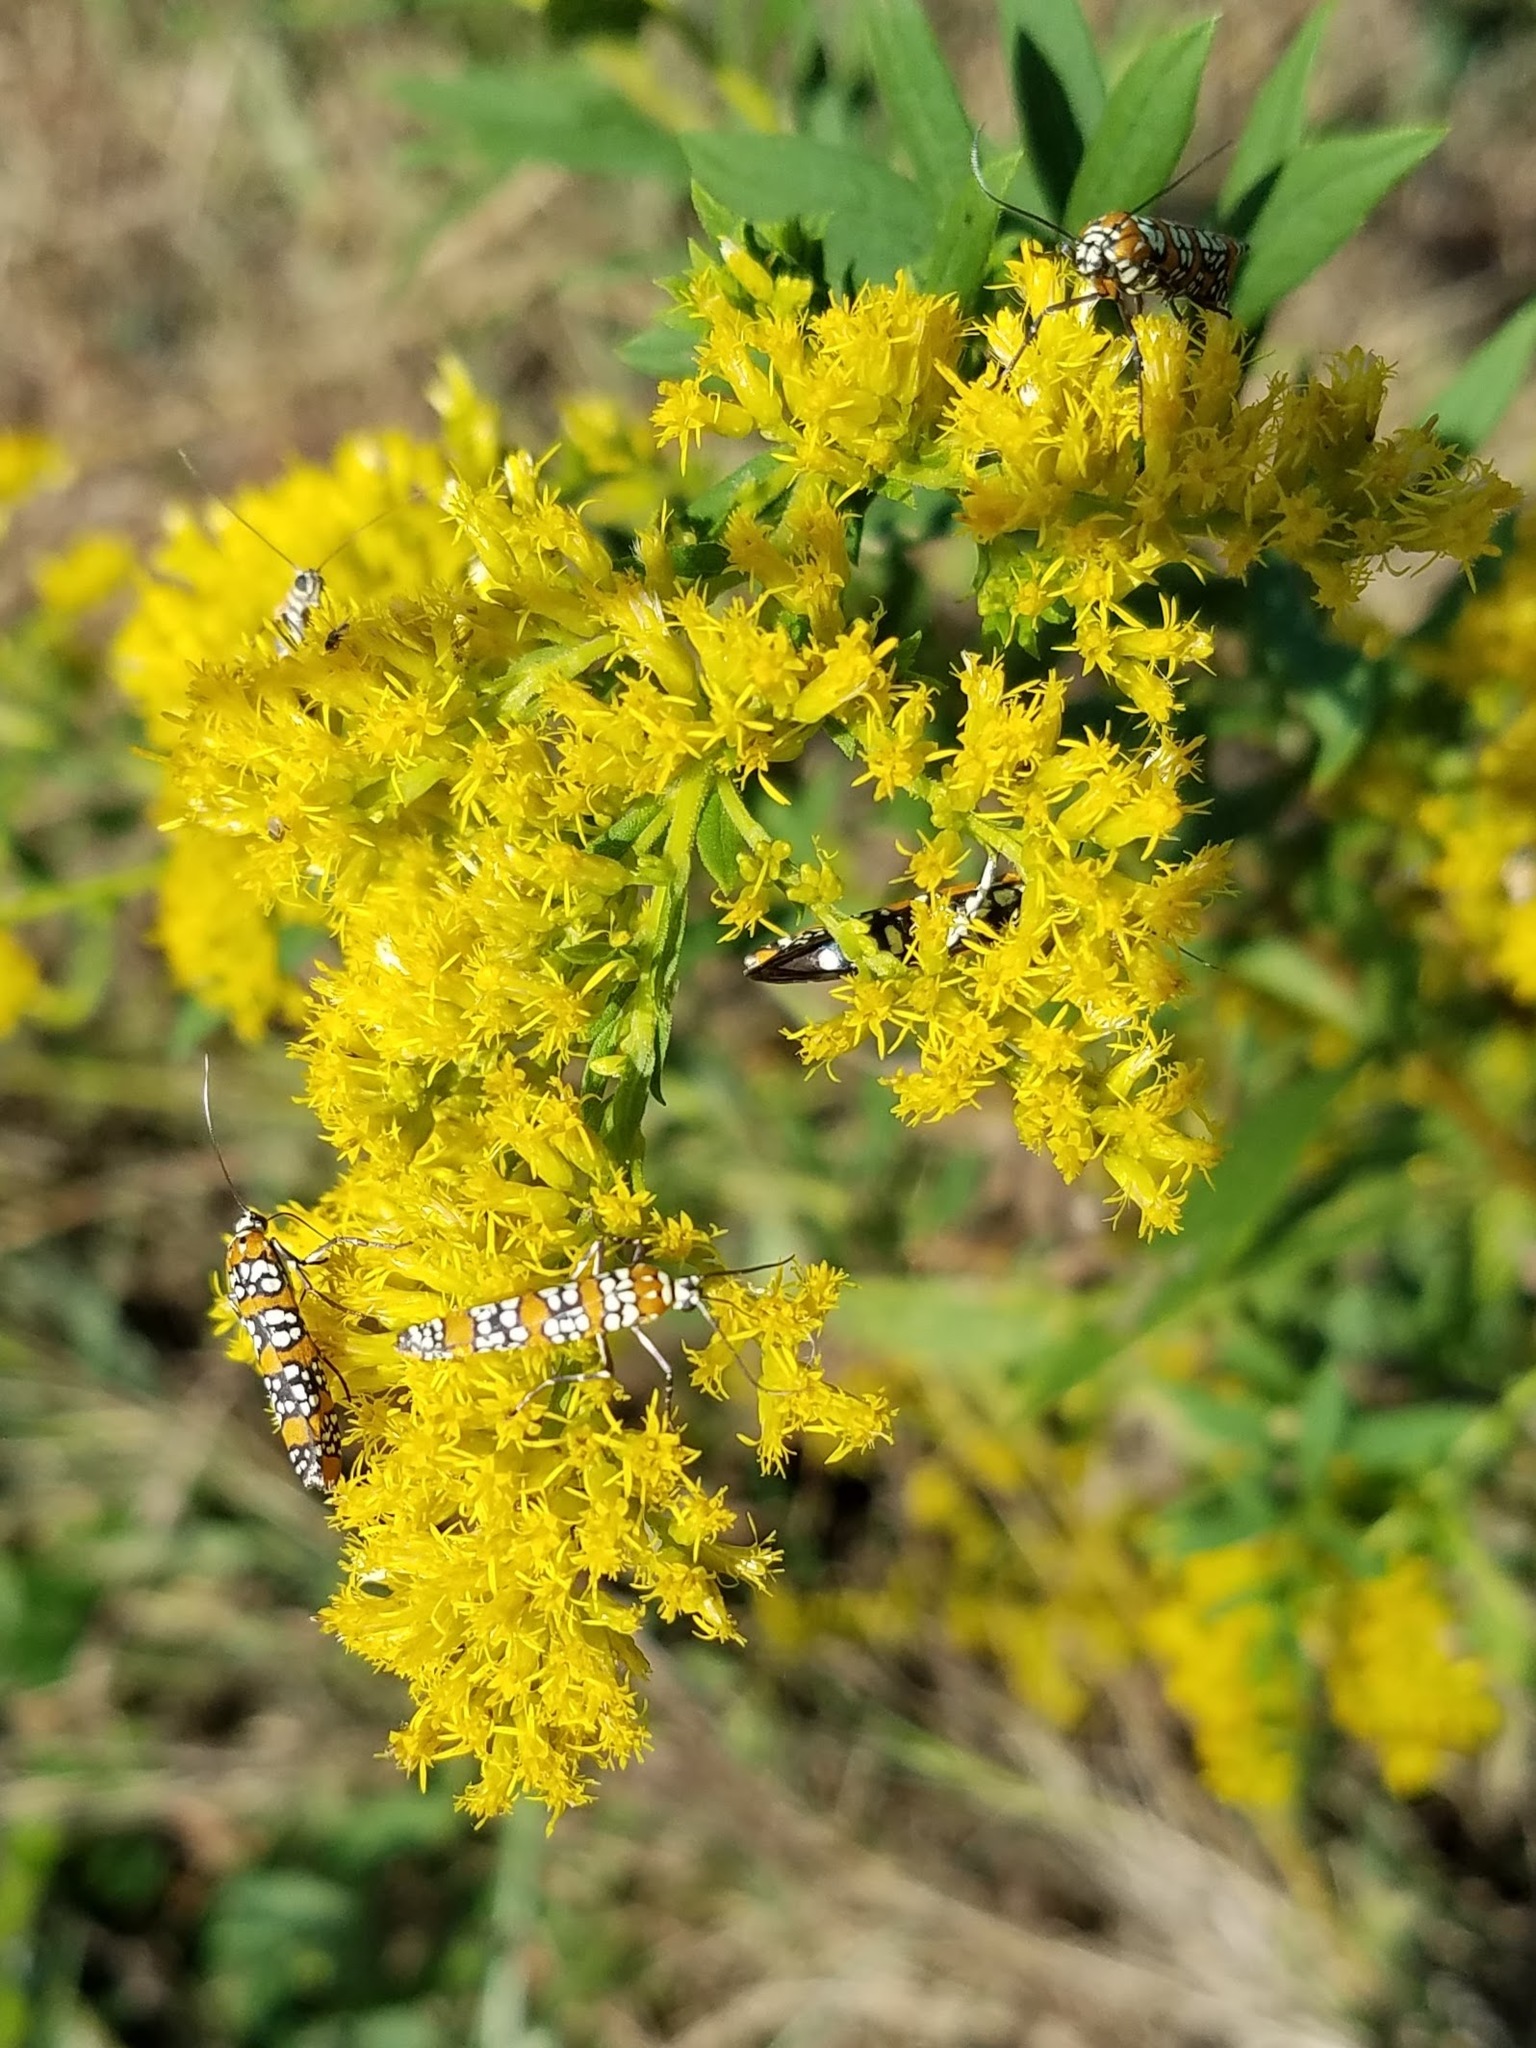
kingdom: Animalia
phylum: Arthropoda
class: Insecta
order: Lepidoptera
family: Attevidae
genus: Atteva
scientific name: Atteva punctella
